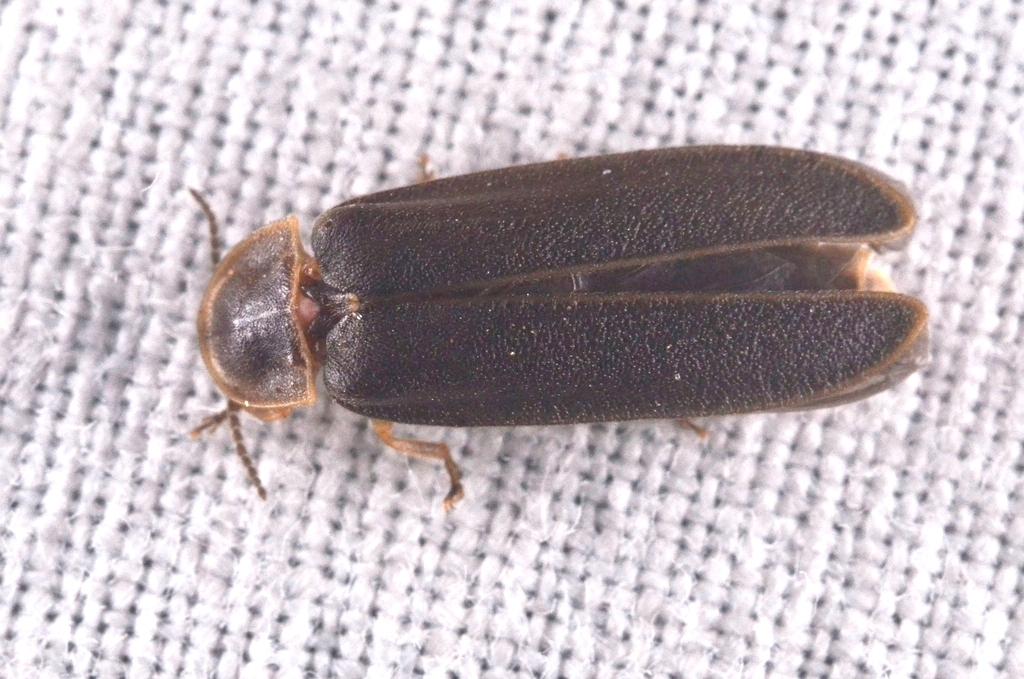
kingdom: Animalia
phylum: Arthropoda
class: Insecta
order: Coleoptera
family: Lampyridae
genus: Lampyris
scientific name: Lampyris noctiluca
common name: Glow-worm
